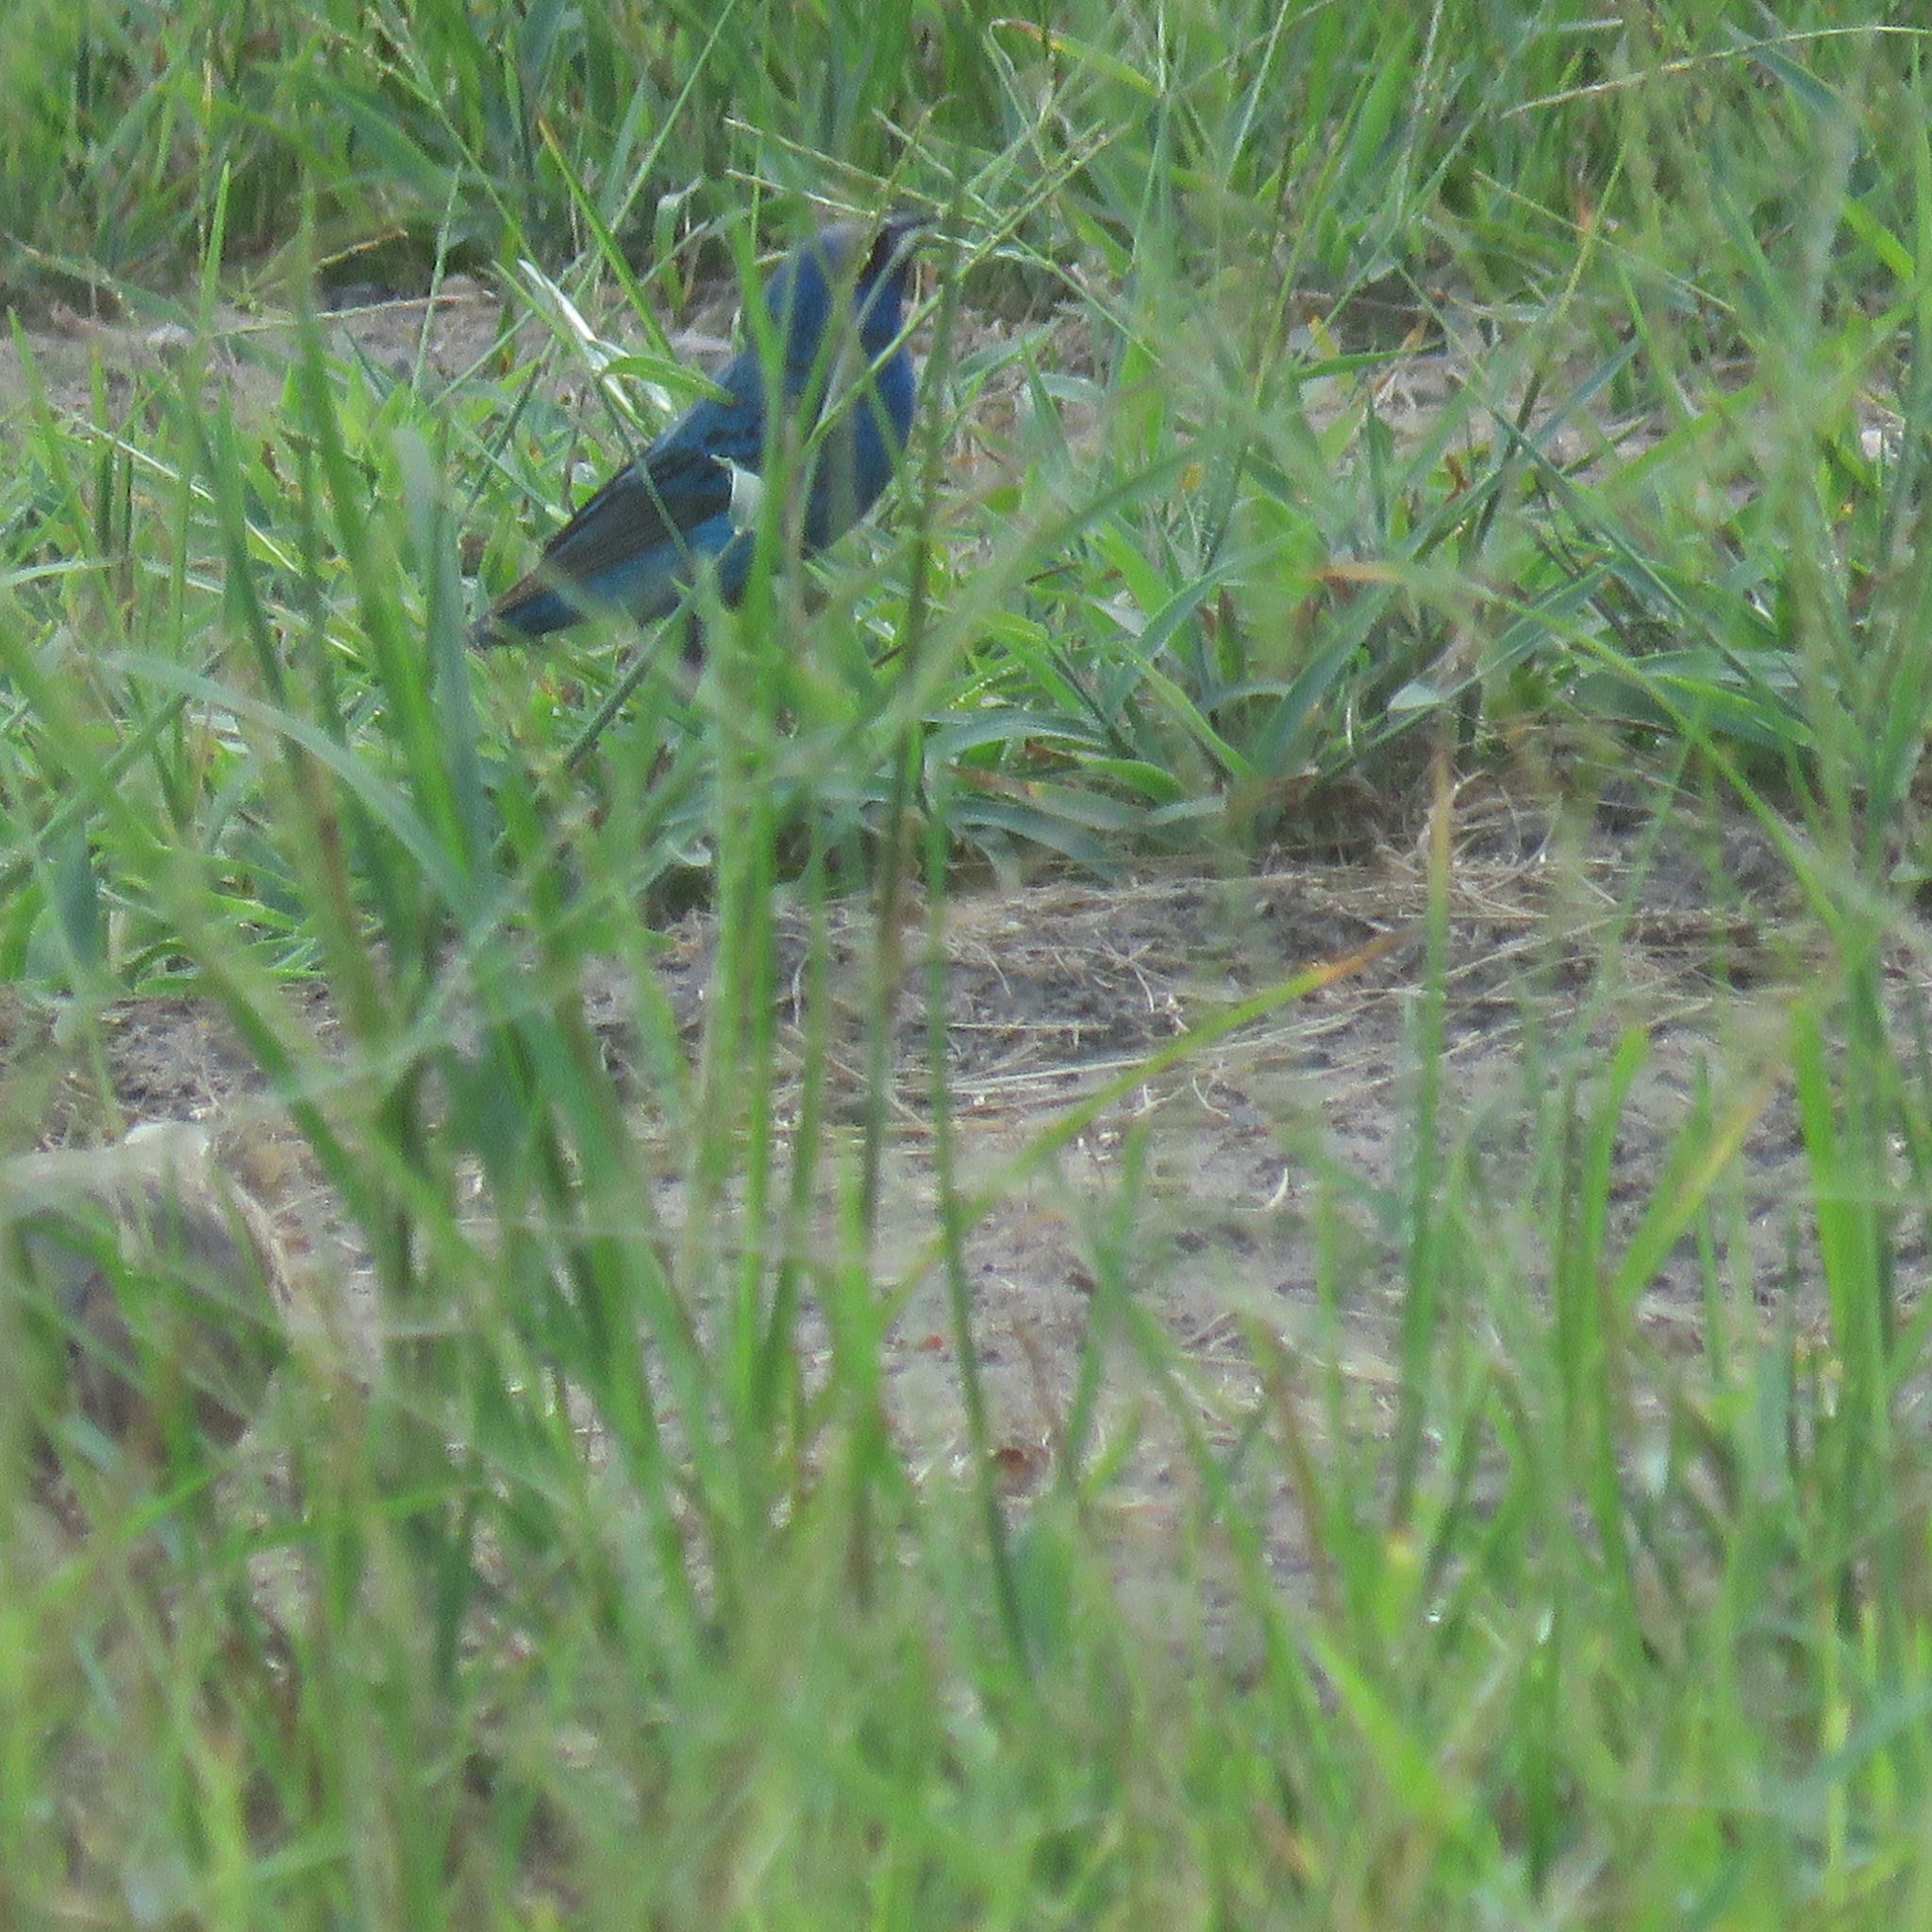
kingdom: Animalia
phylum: Chordata
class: Aves
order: Passeriformes
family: Cardinalidae
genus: Passerina
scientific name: Passerina cyanea
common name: Indigo bunting
